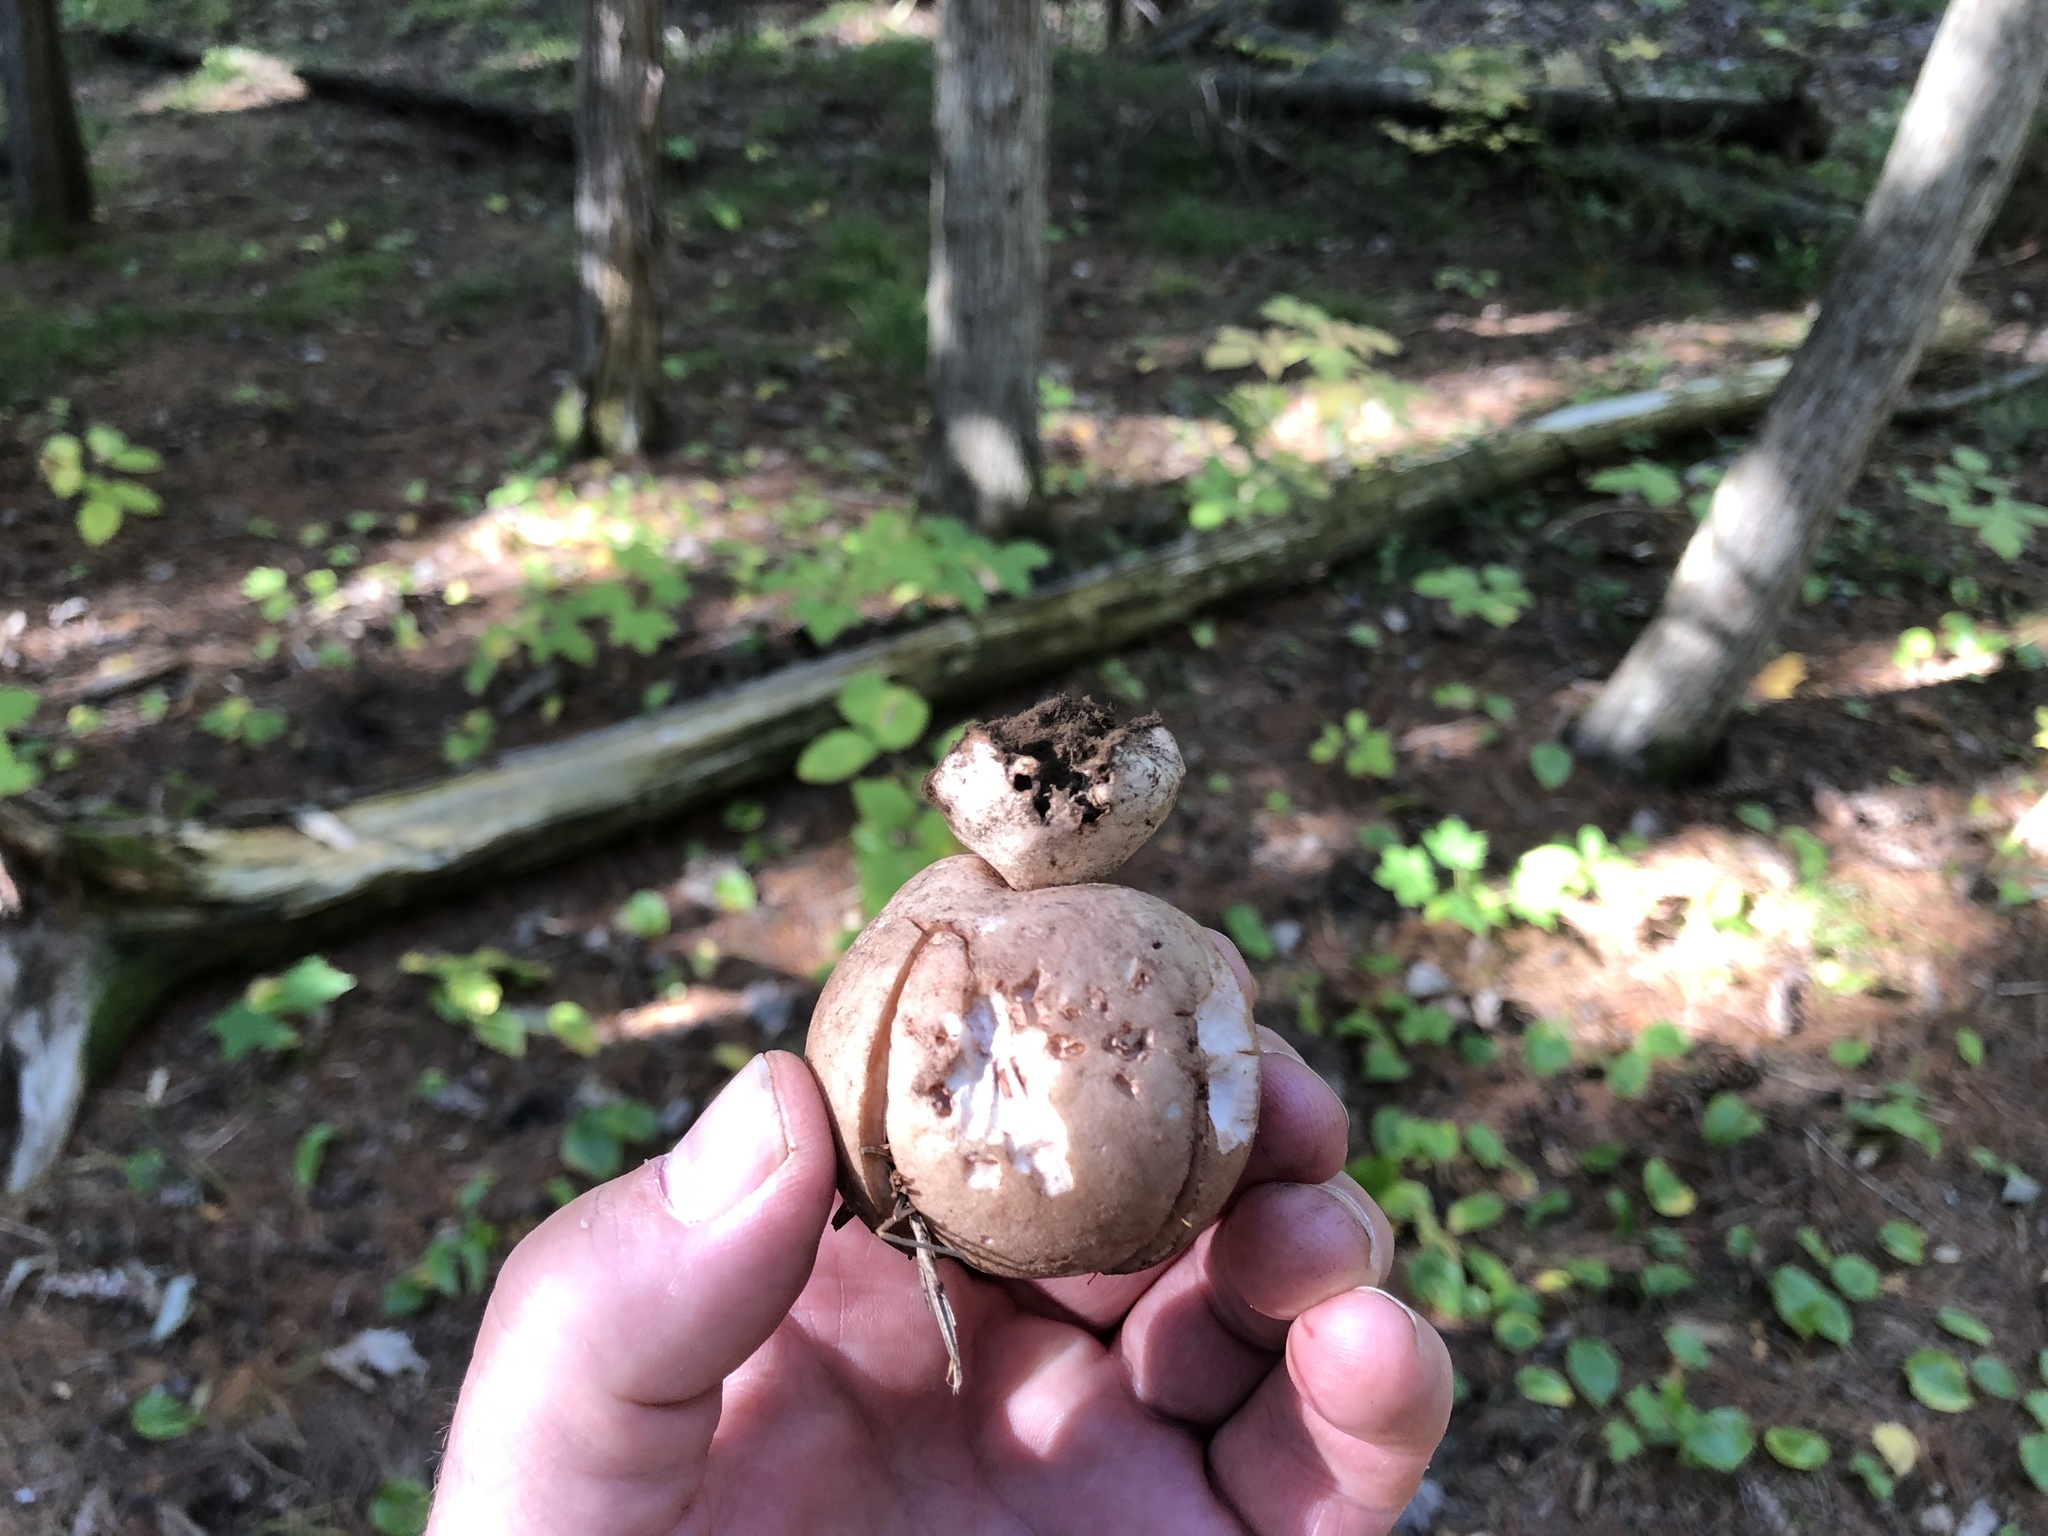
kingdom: Fungi
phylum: Basidiomycota
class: Agaricomycetes
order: Geastrales
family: Geastraceae
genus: Geastrum
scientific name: Geastrum rufescens
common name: Rosy earthstar
